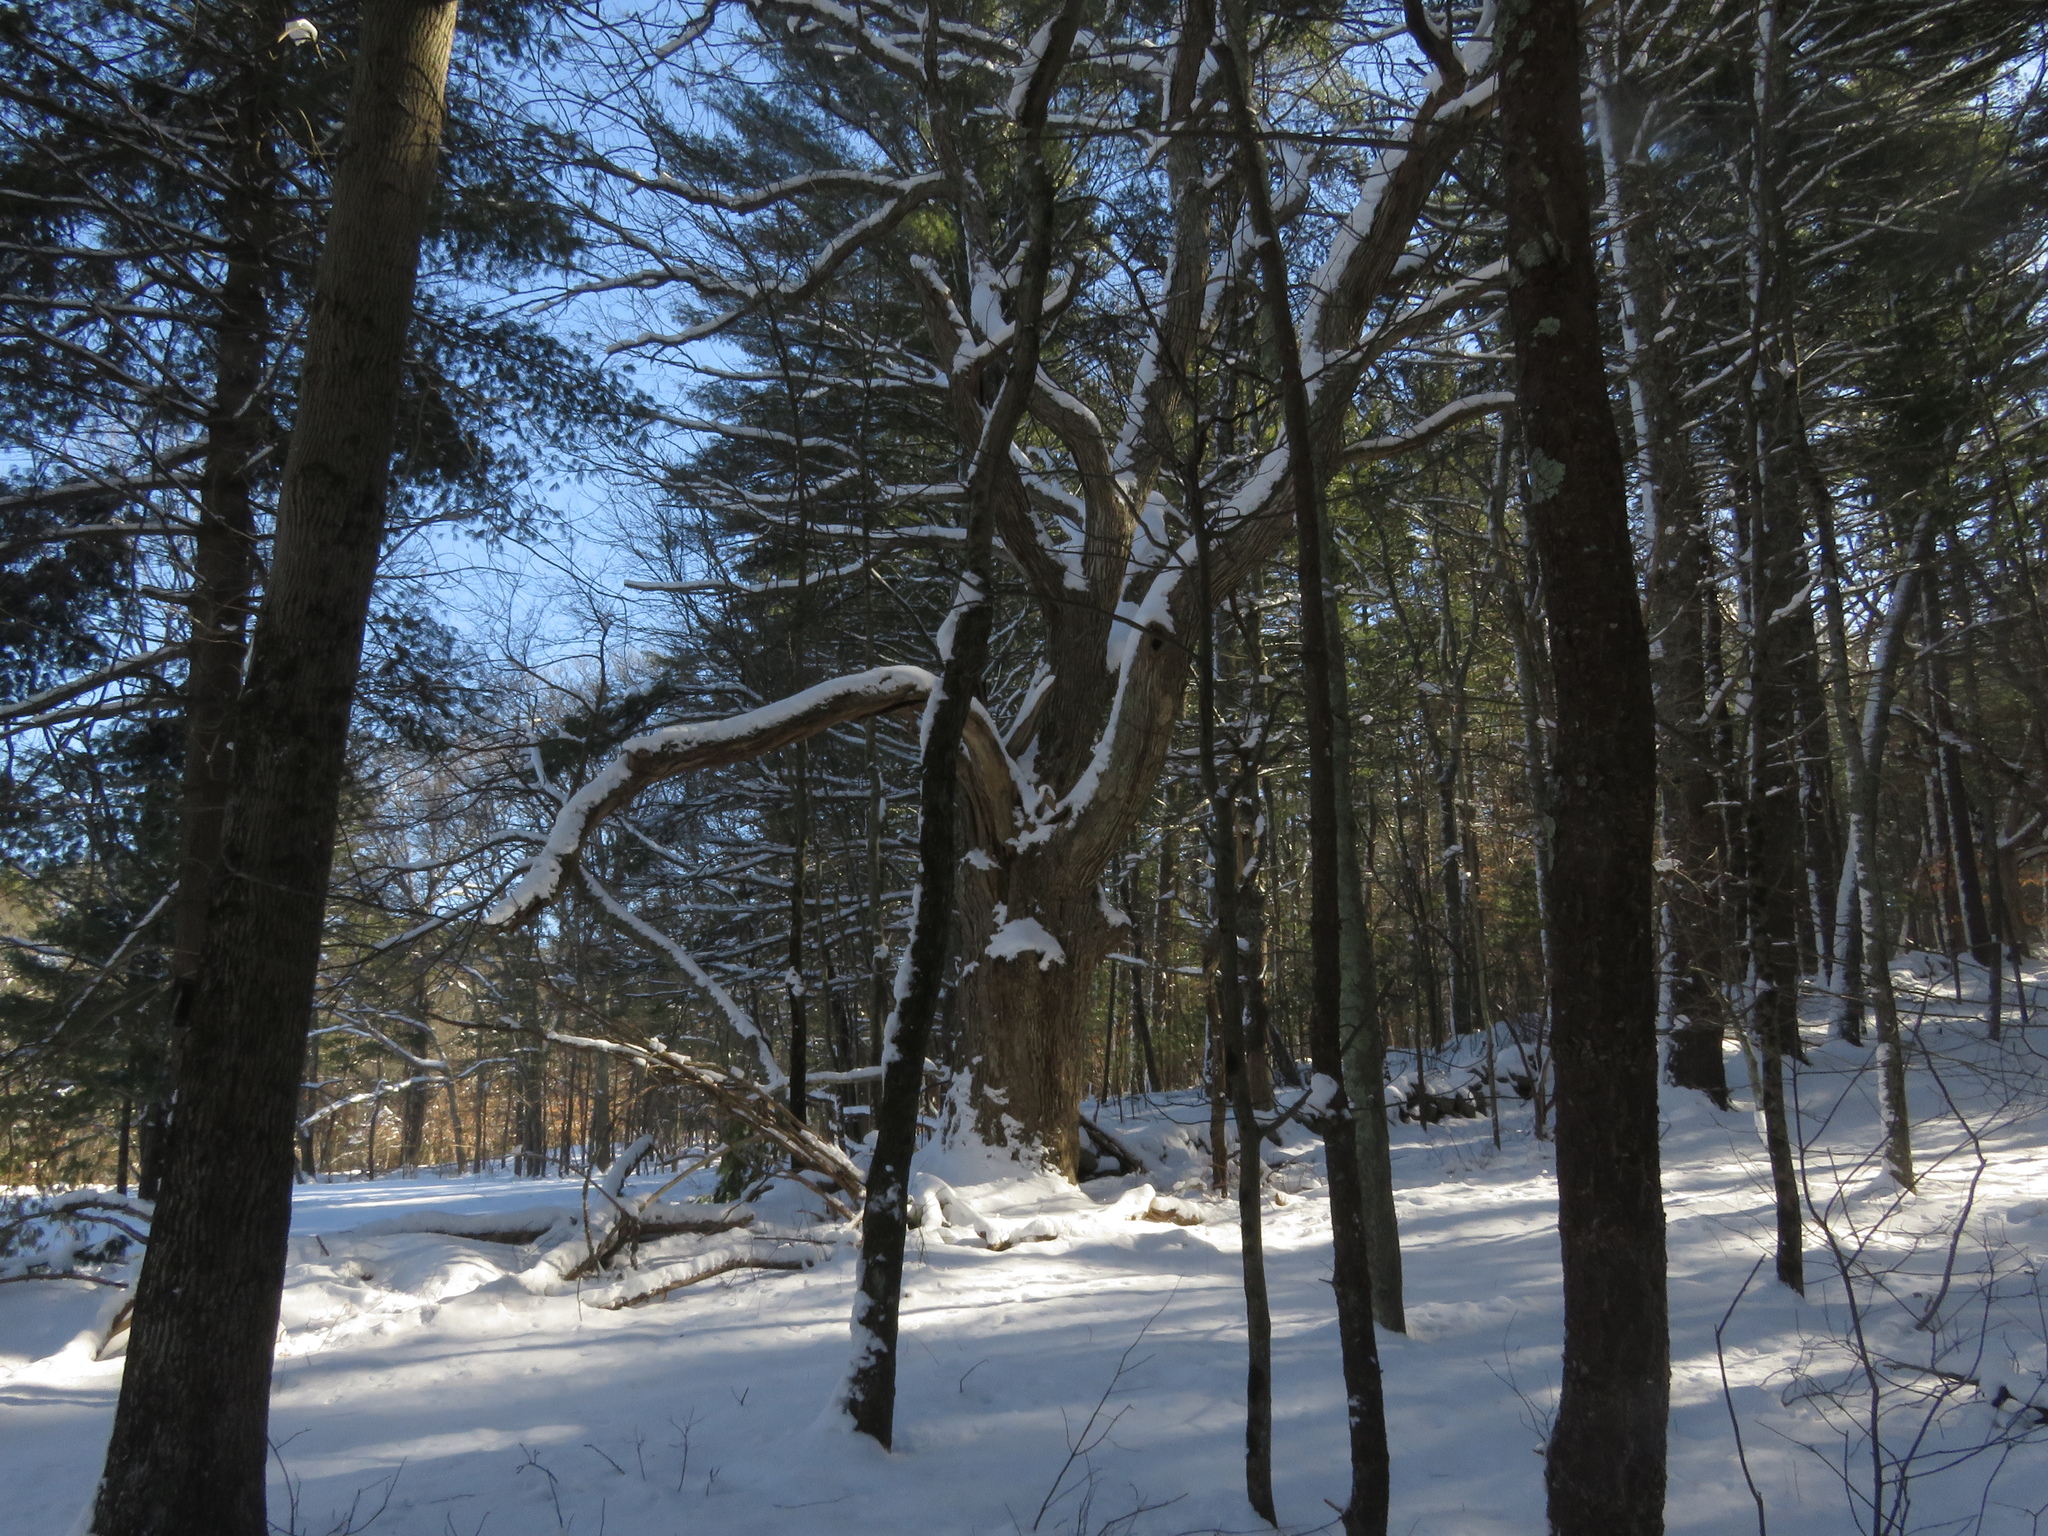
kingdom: Plantae
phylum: Tracheophyta
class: Magnoliopsida
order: Fagales
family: Fagaceae
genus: Quercus
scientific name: Quercus alba
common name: White oak
